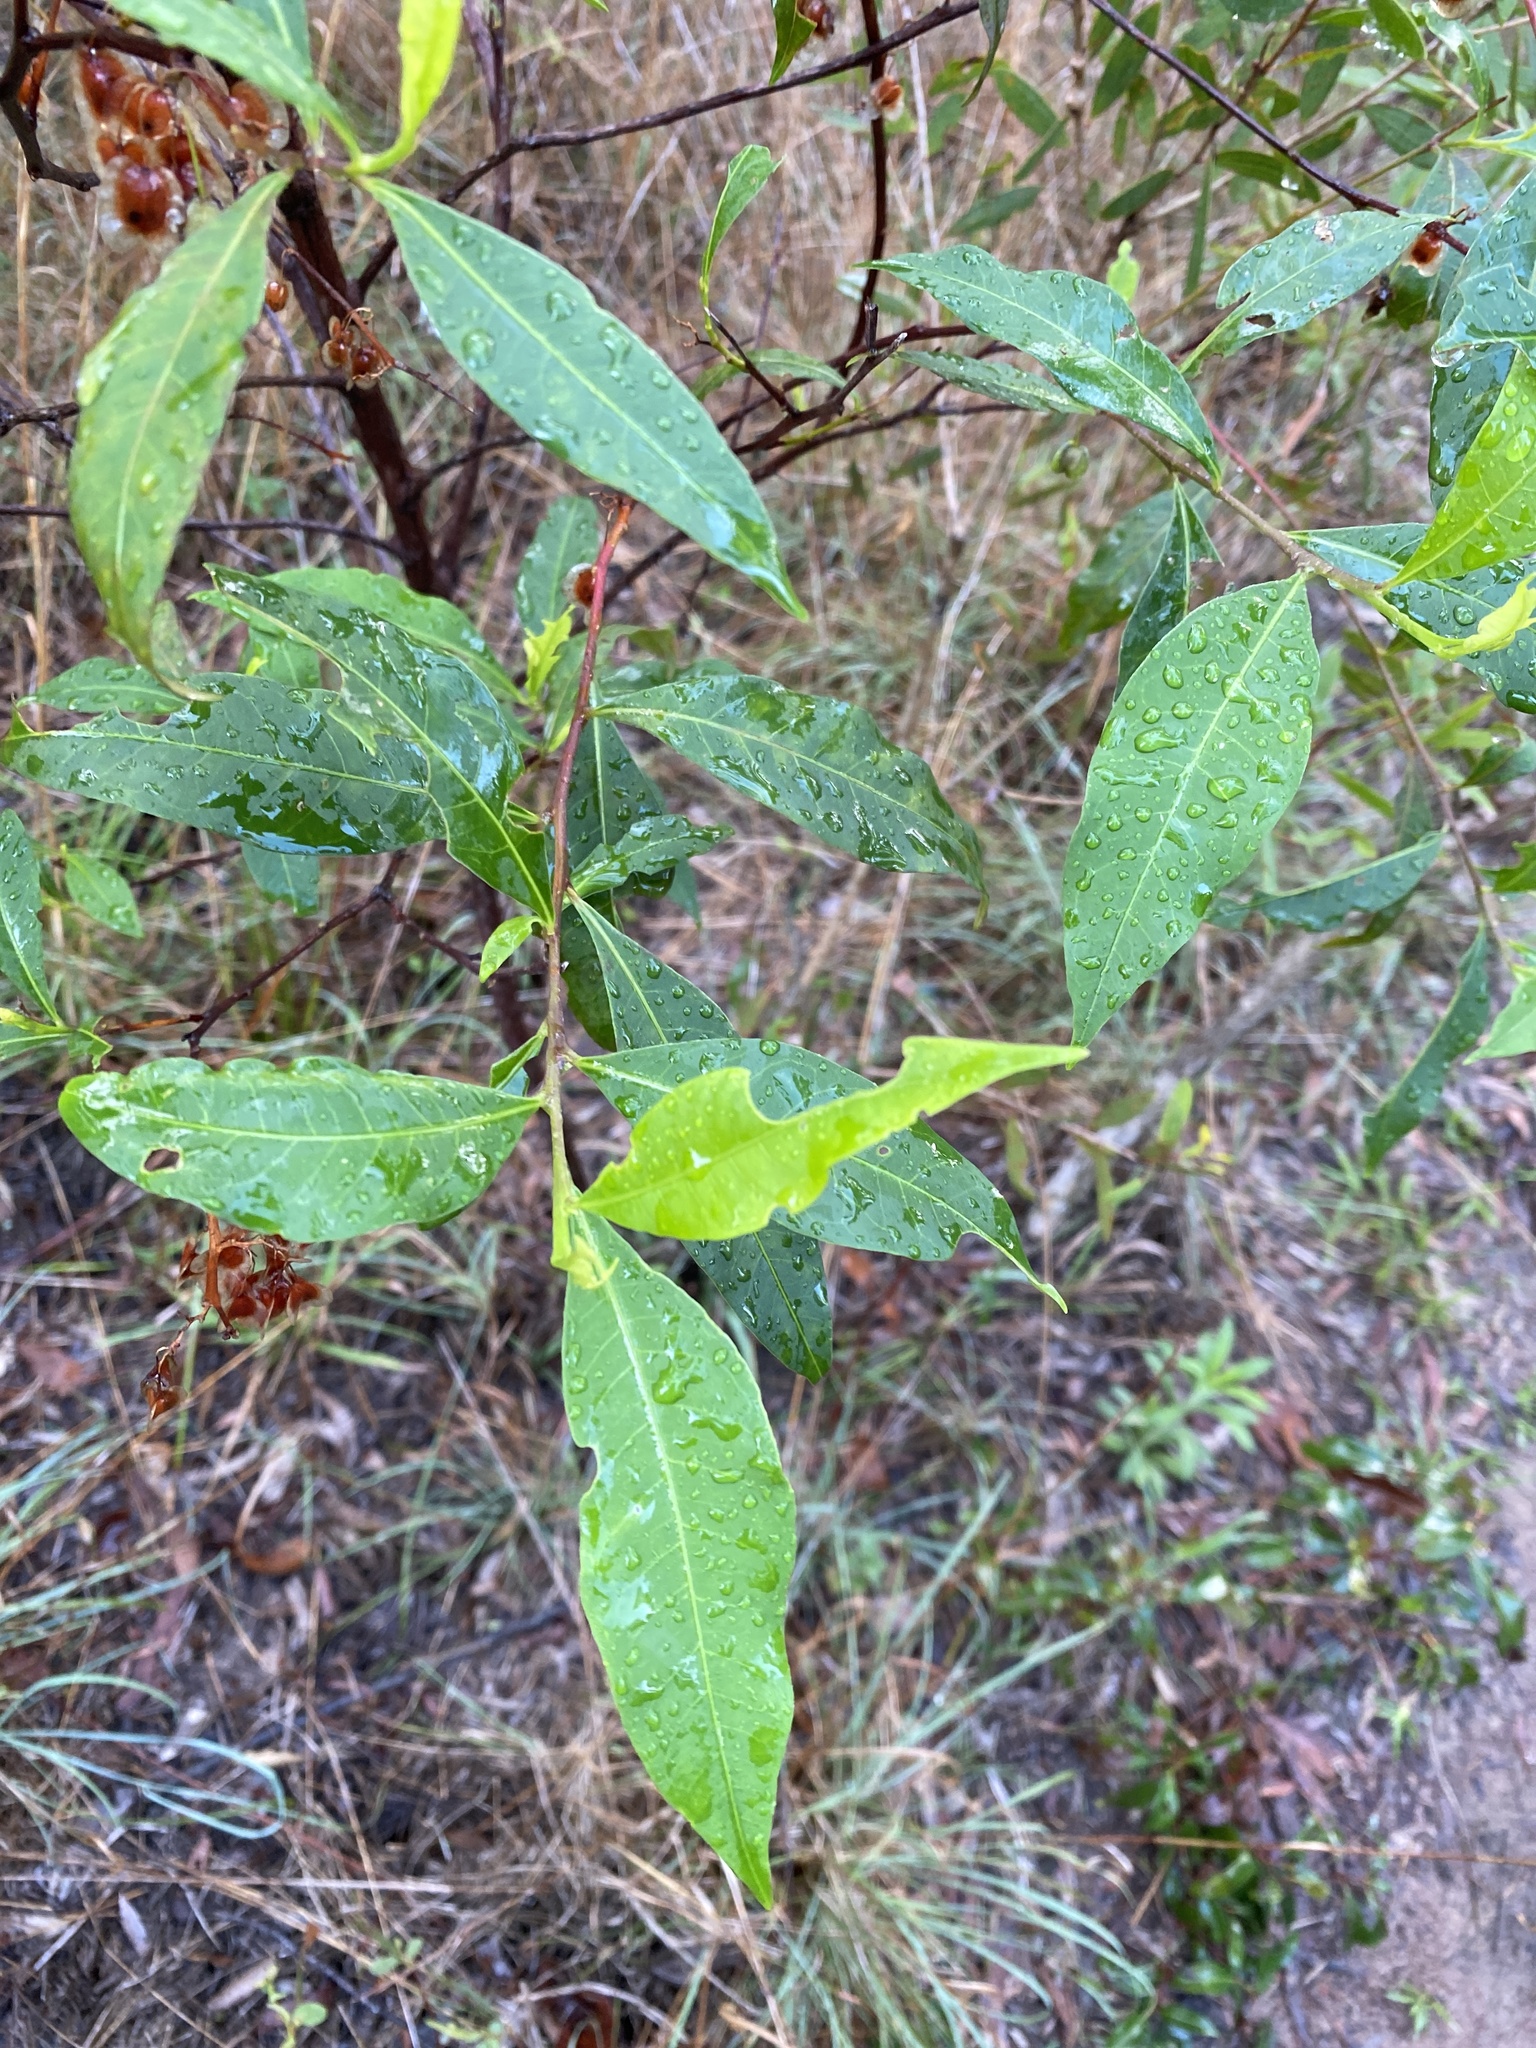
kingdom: Plantae
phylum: Tracheophyta
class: Magnoliopsida
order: Sapindales
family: Sapindaceae
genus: Dodonaea
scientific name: Dodonaea triquetra
